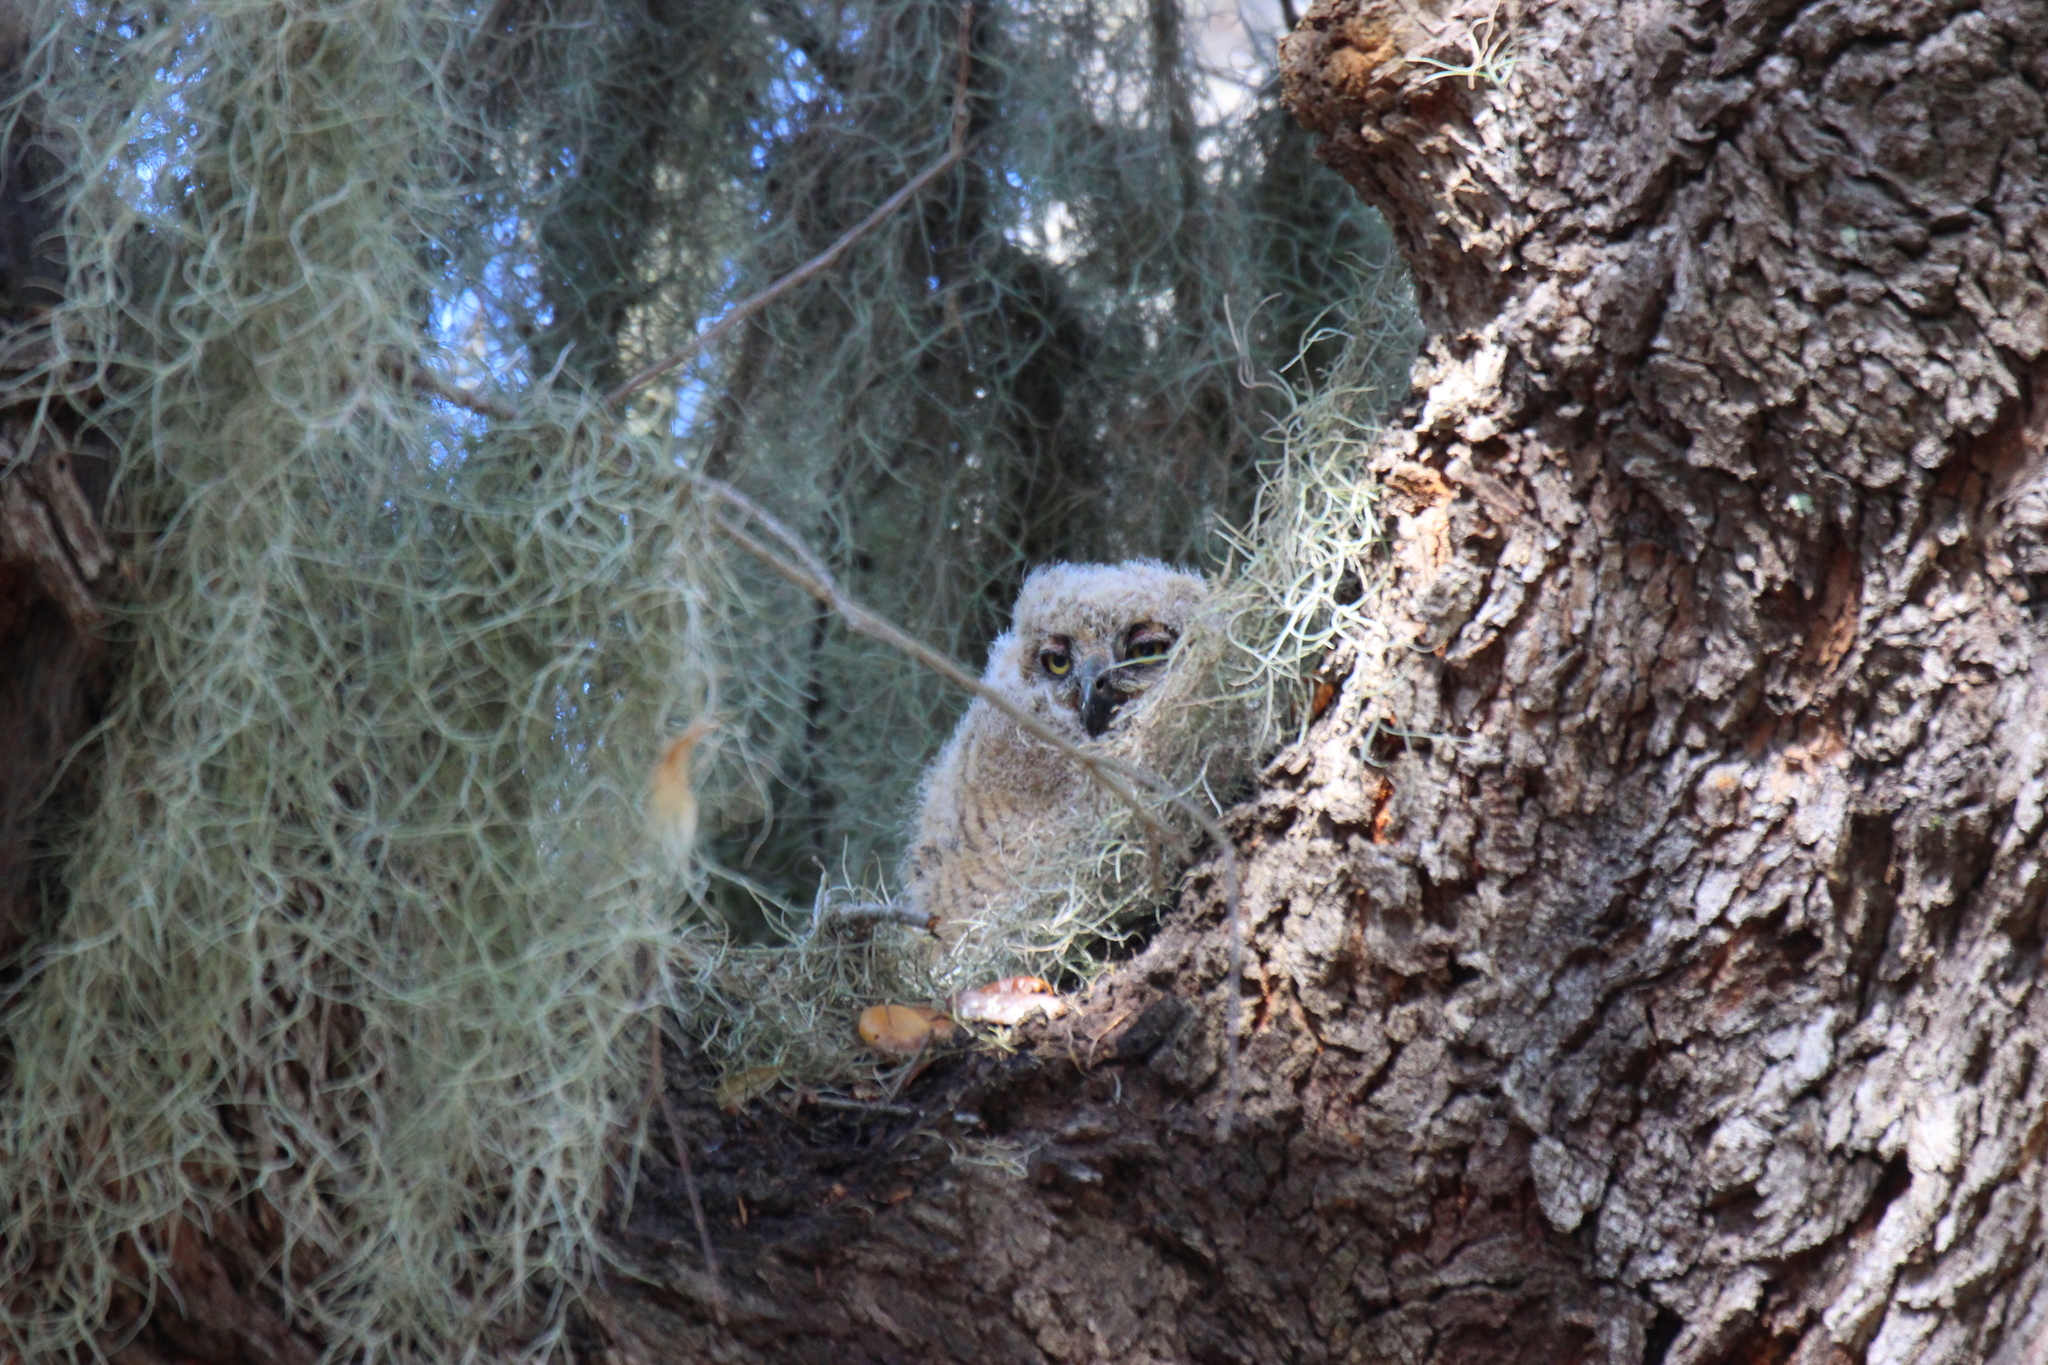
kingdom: Animalia
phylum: Chordata
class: Aves
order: Strigiformes
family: Strigidae
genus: Bubo
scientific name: Bubo virginianus
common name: Great horned owl
